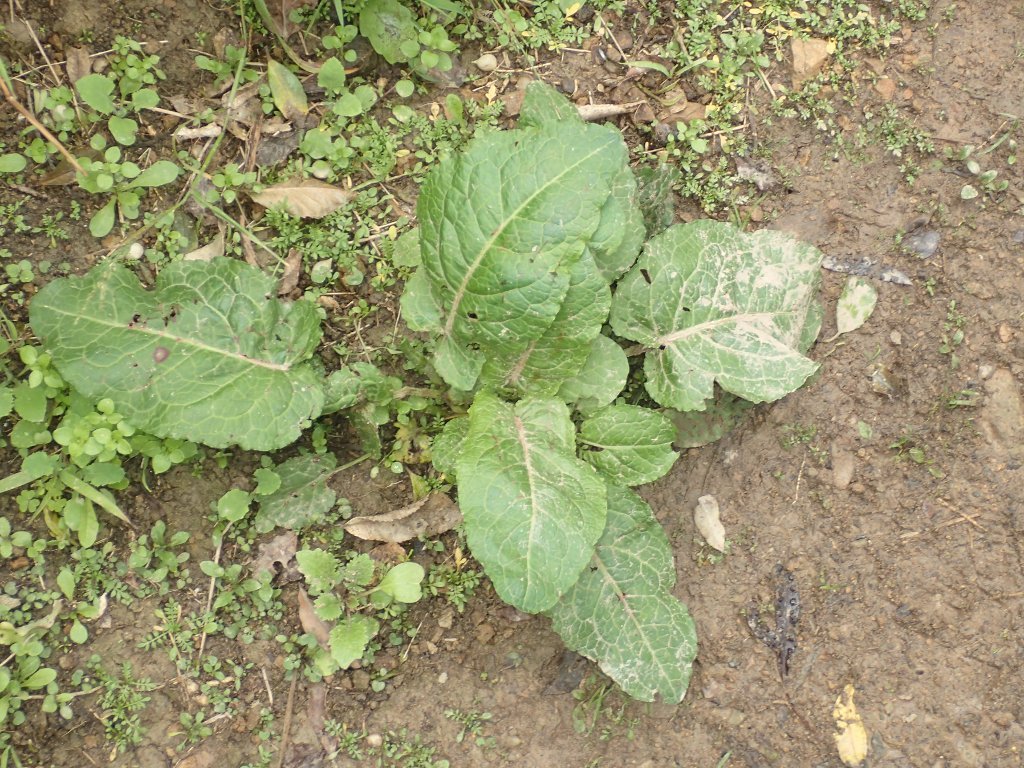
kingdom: Plantae
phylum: Tracheophyta
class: Magnoliopsida
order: Caryophyllales
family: Polygonaceae
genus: Rumex
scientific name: Rumex obtusifolius
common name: Bitter dock
